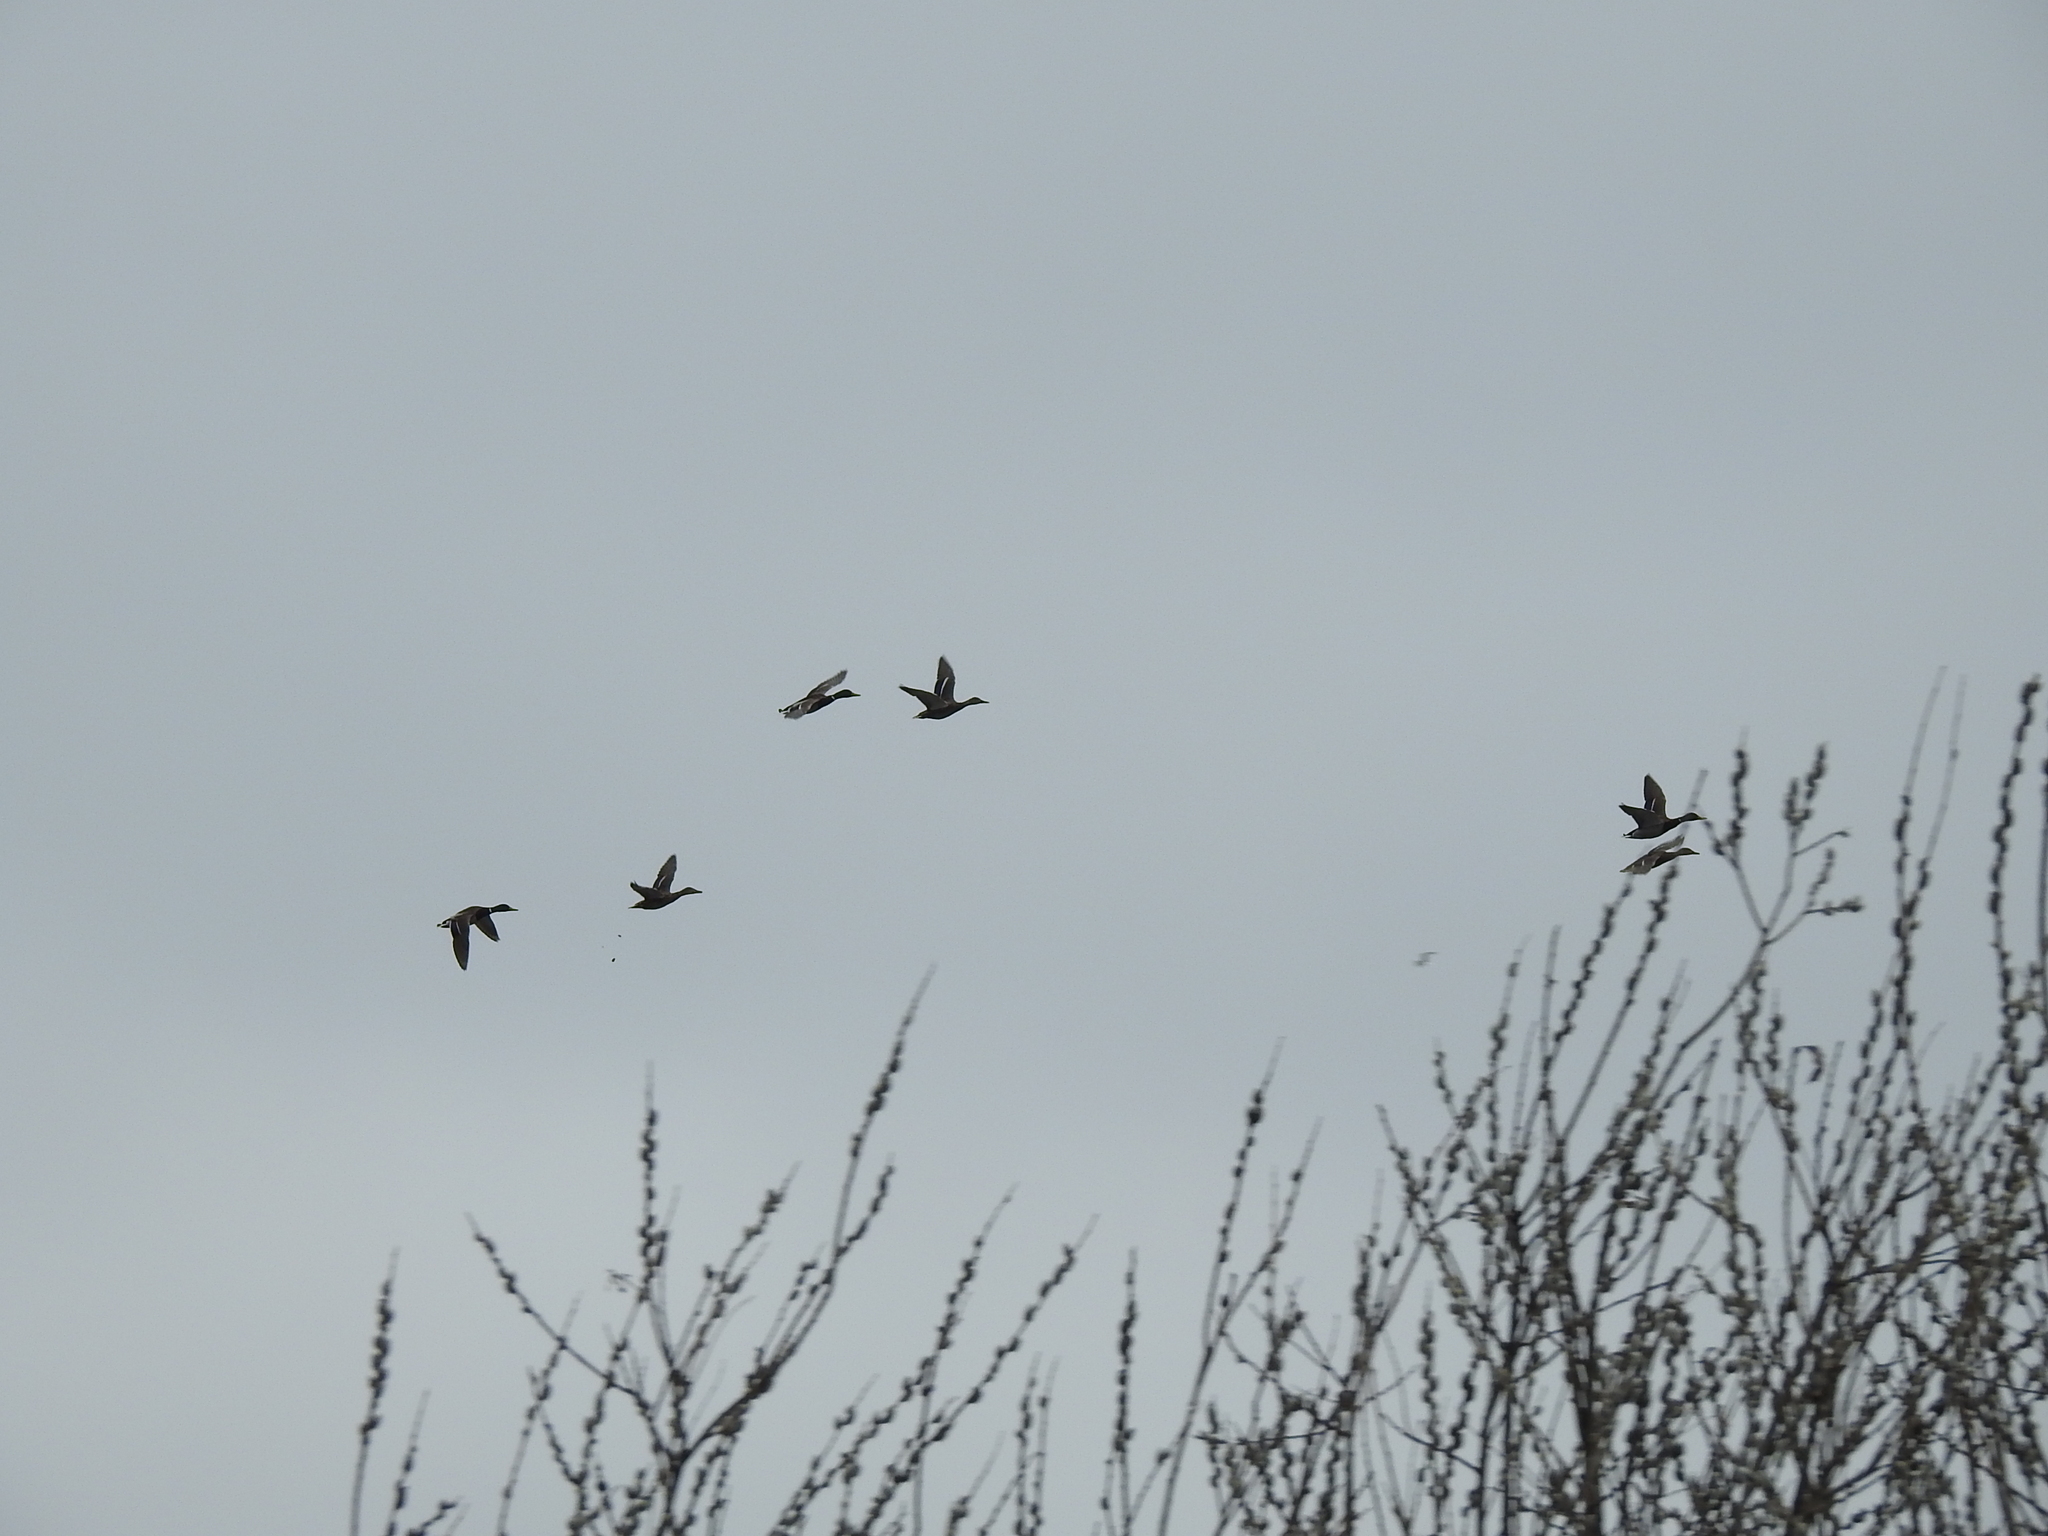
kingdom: Animalia
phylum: Chordata
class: Aves
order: Anseriformes
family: Anatidae
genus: Anas
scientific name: Anas platyrhynchos
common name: Mallard
